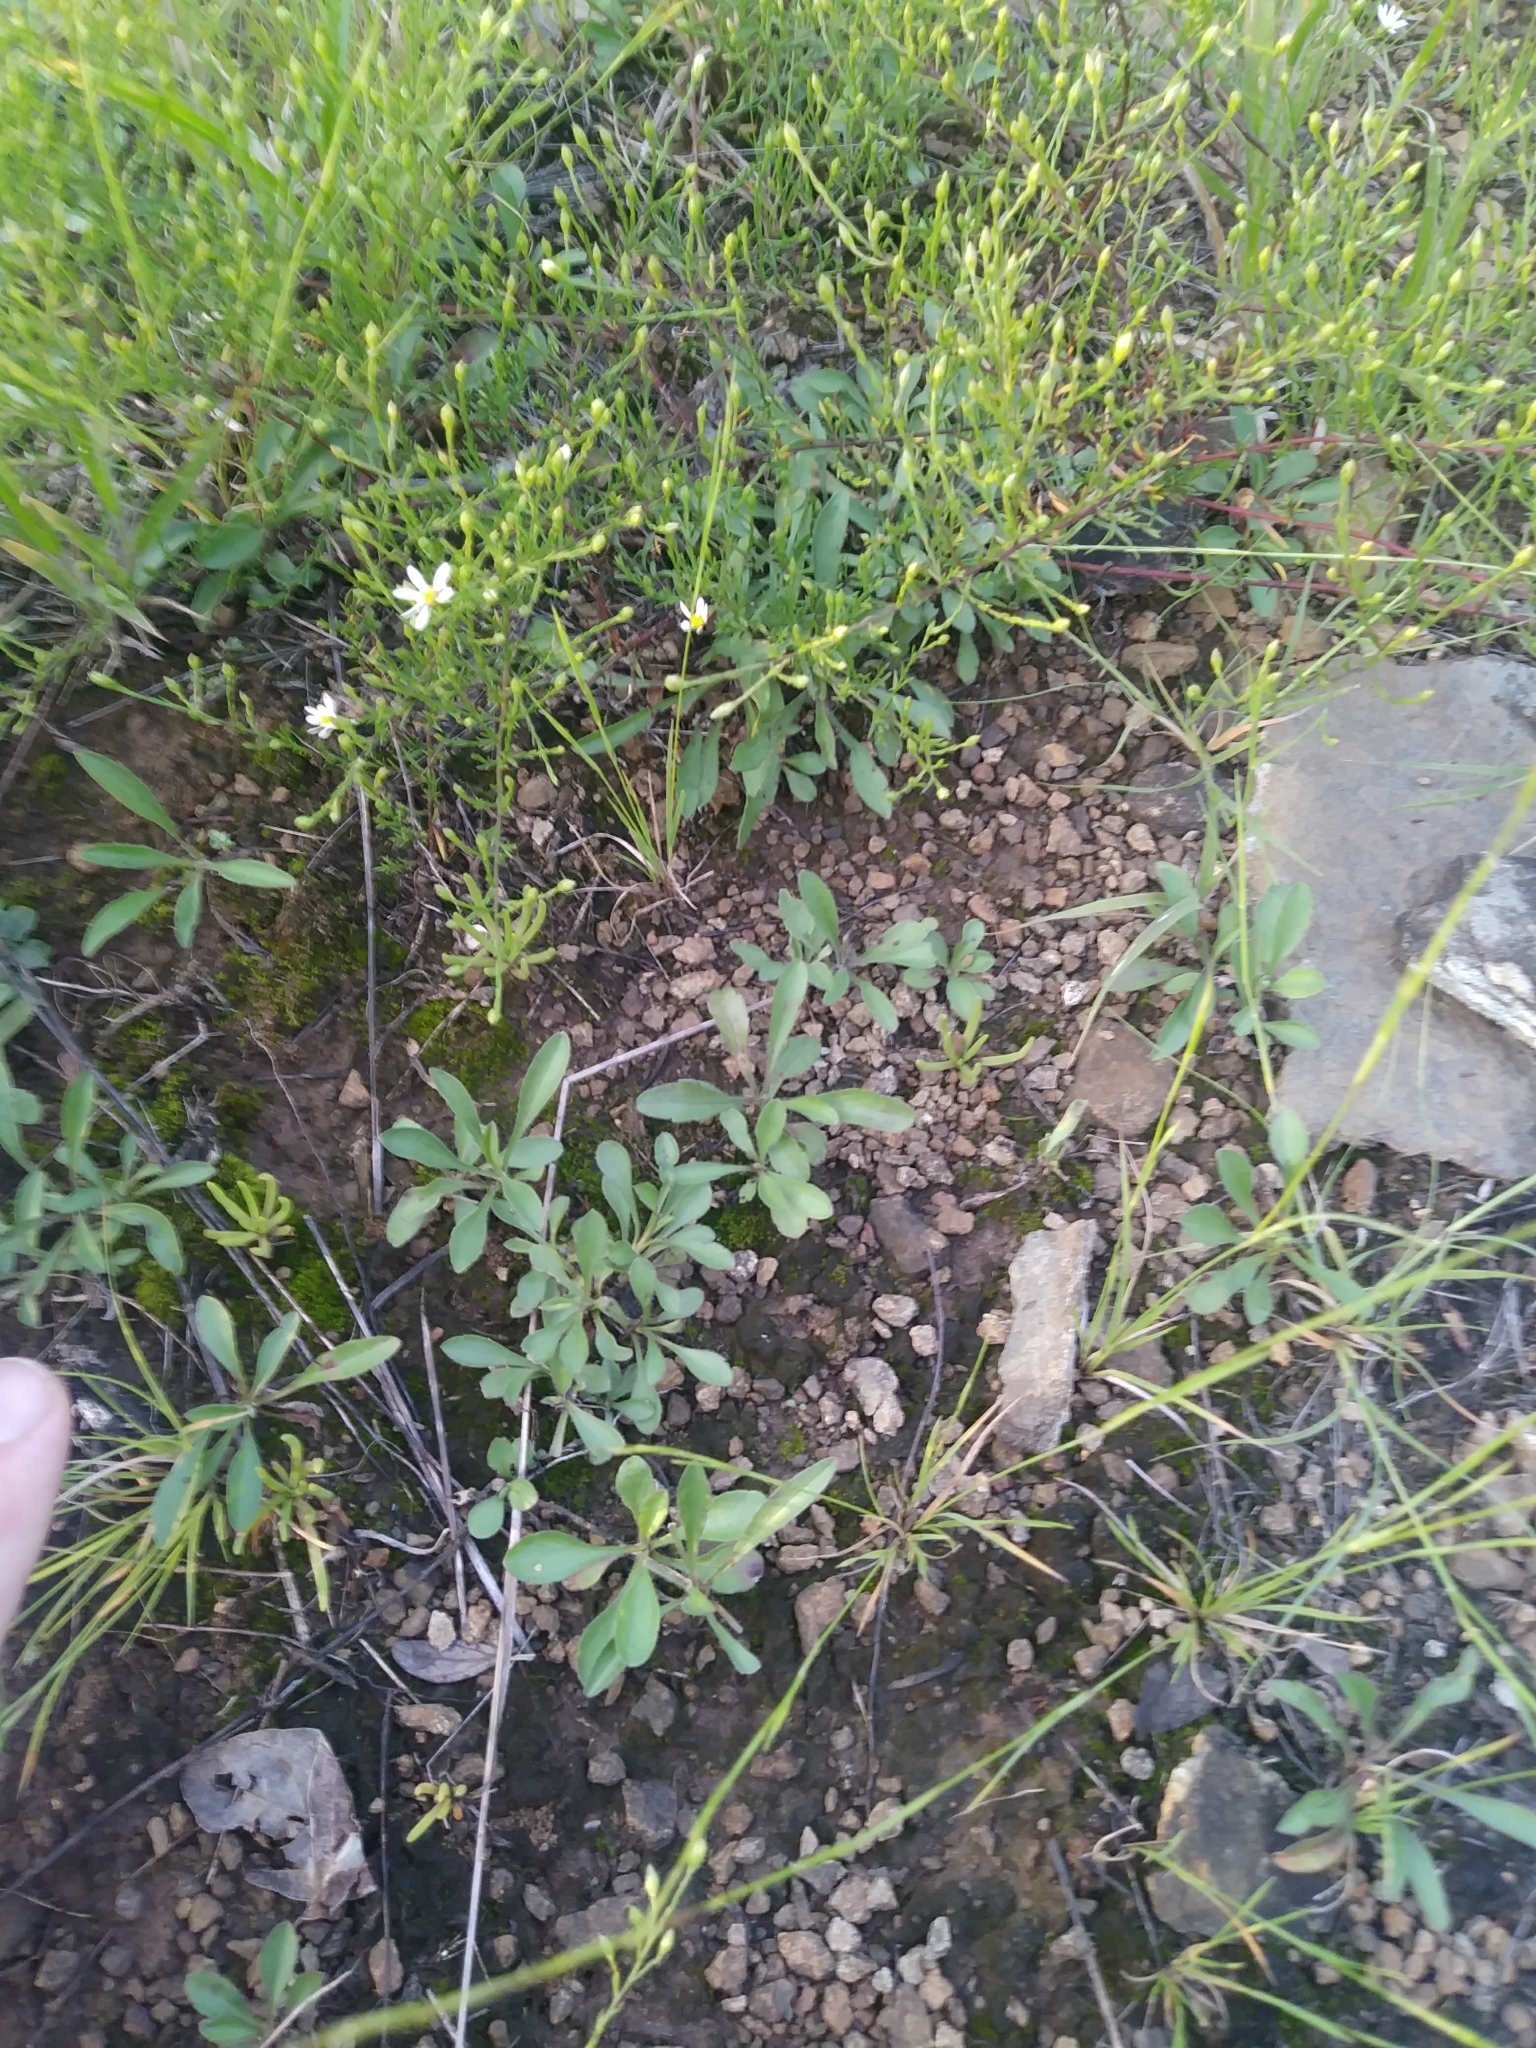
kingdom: Plantae
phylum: Tracheophyta
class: Magnoliopsida
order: Caryophyllales
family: Montiaceae
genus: Phemeranthus
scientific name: Phemeranthus teretifolius
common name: Quill fameflower
